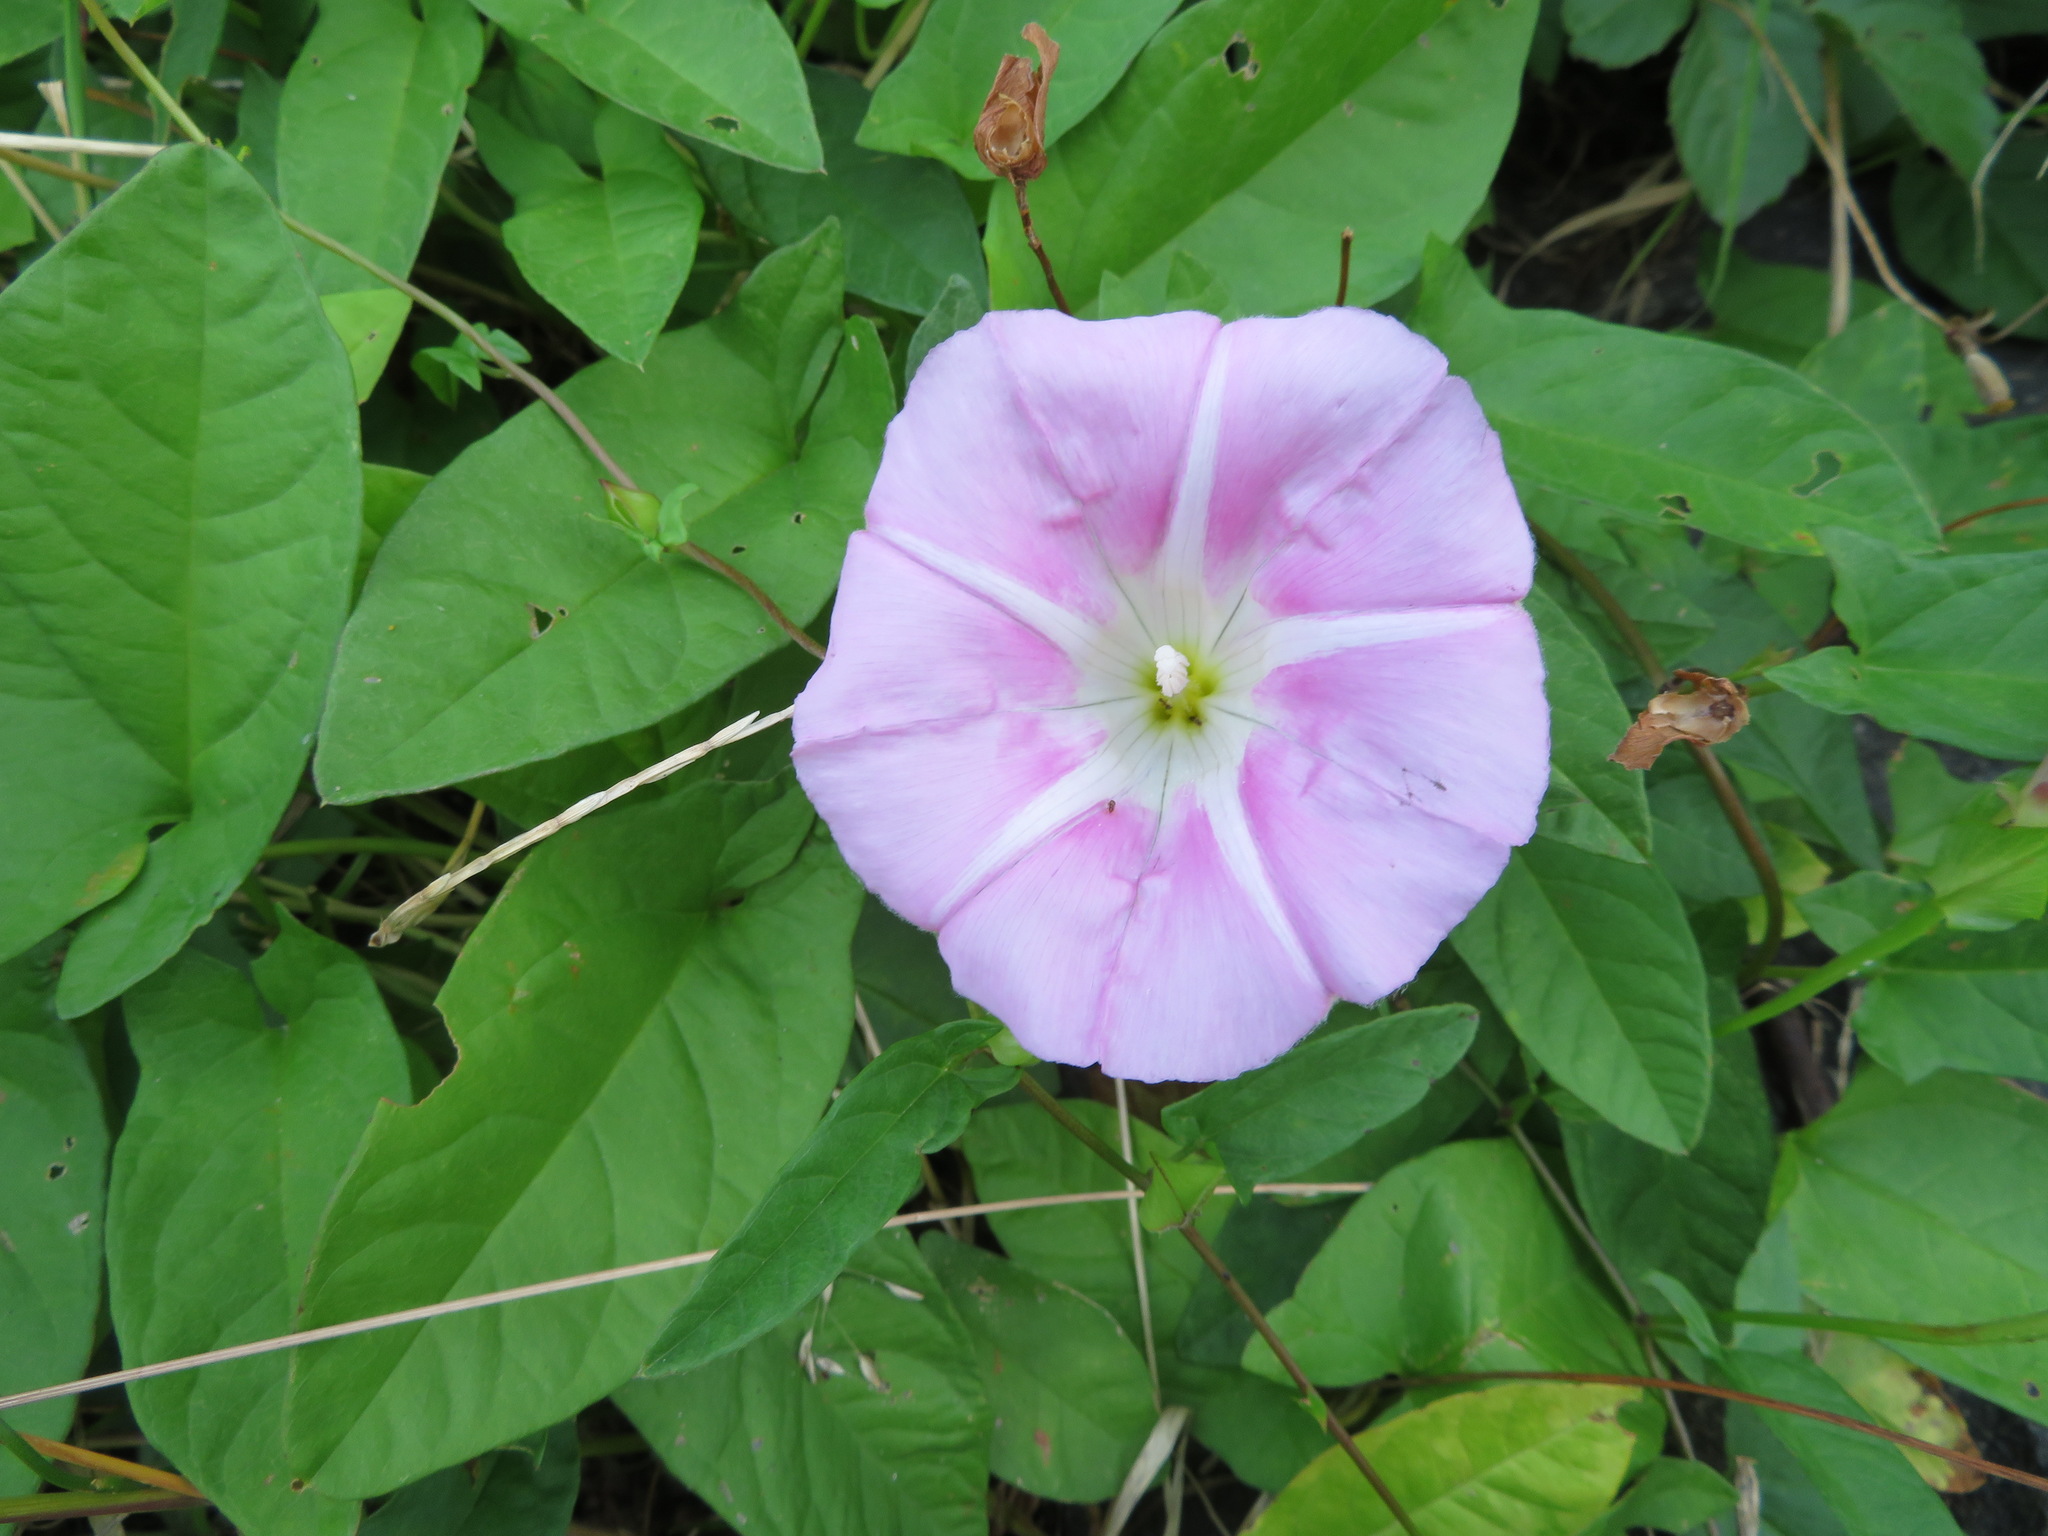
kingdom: Plantae
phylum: Tracheophyta
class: Magnoliopsida
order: Solanales
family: Convolvulaceae
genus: Calystegia
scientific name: Calystegia pubescens
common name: Japanese bindweed
